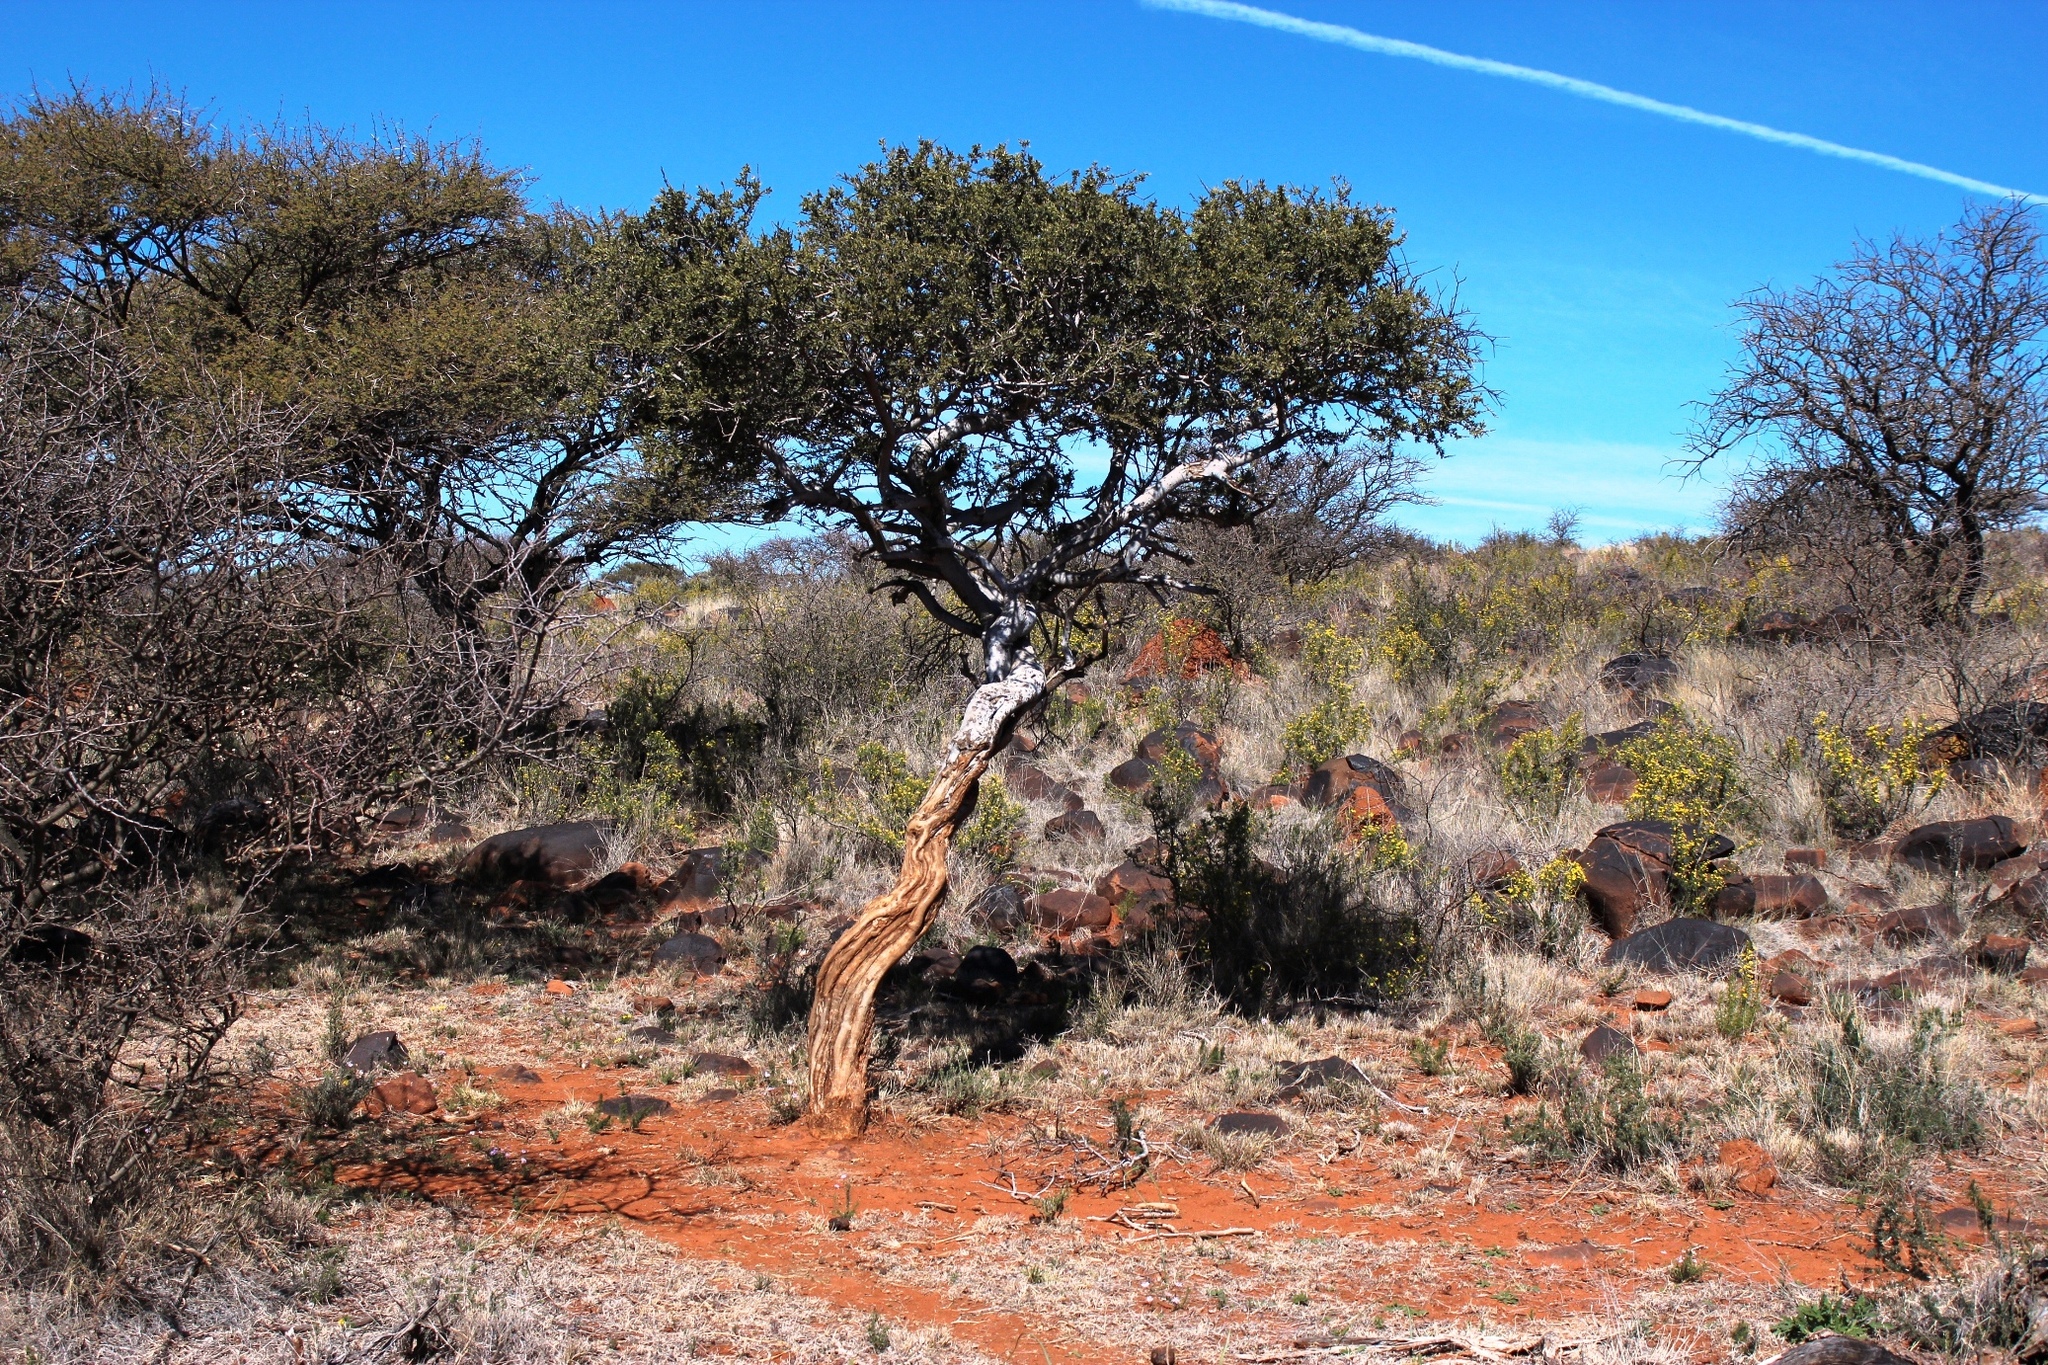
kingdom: Plantae
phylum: Tracheophyta
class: Magnoliopsida
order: Brassicales
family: Capparaceae
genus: Boscia
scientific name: Boscia albitrunca
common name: Caper bush
